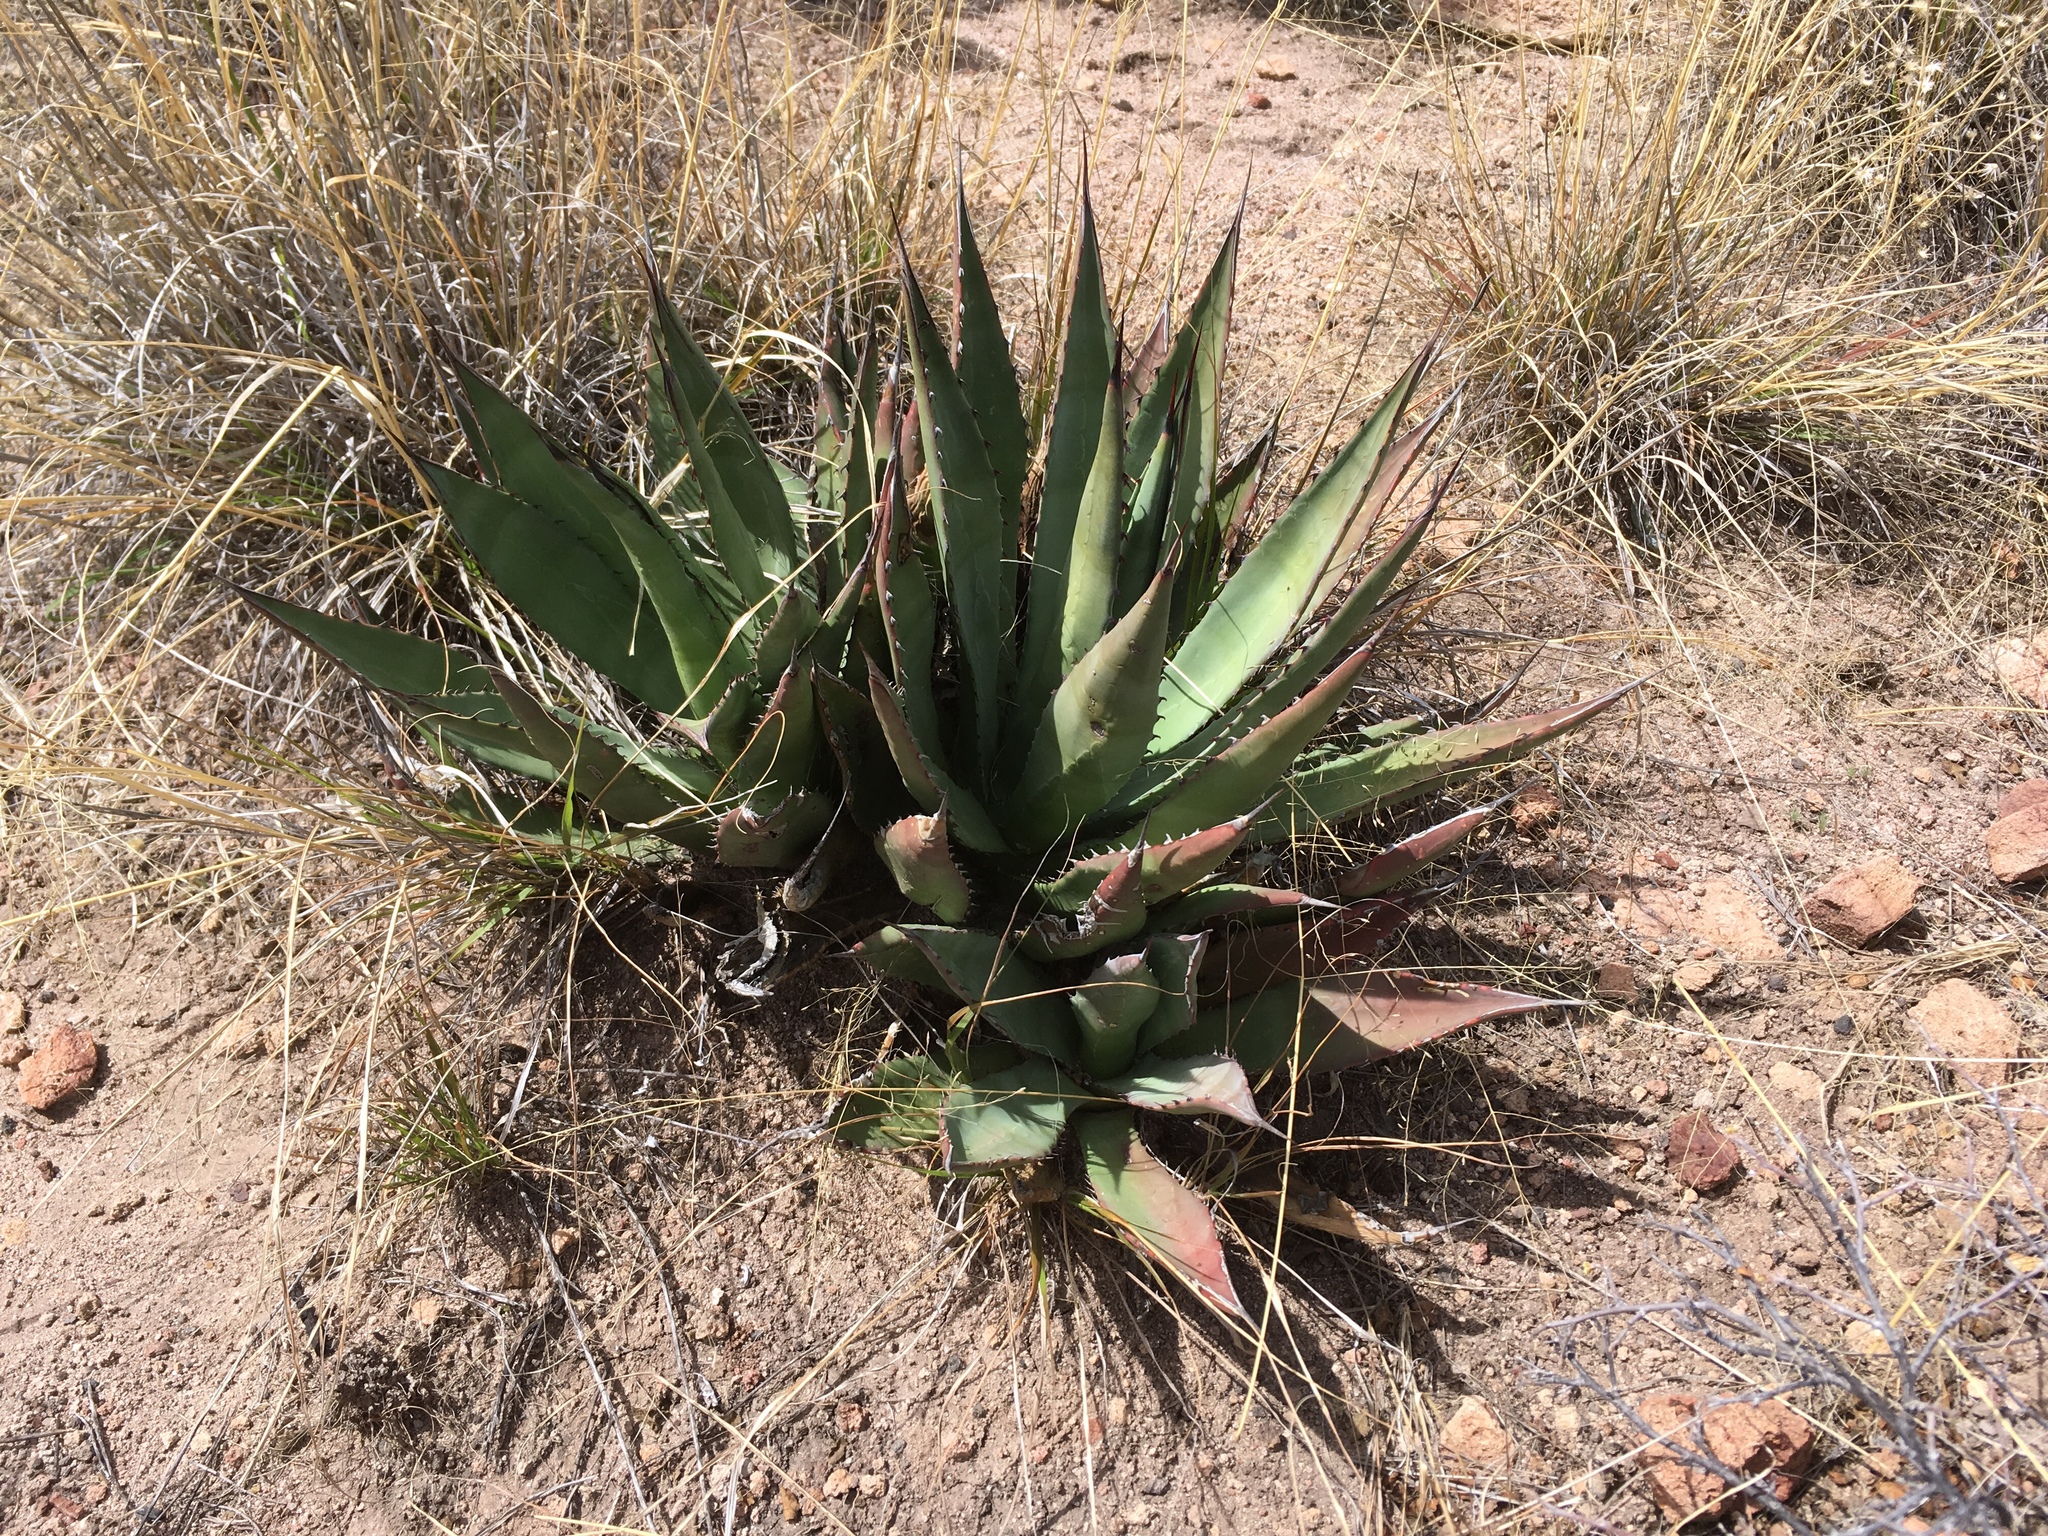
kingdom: Plantae
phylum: Tracheophyta
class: Liliopsida
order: Asparagales
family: Asparagaceae
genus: Agave
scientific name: Agave palmeri
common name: Palmer agave
